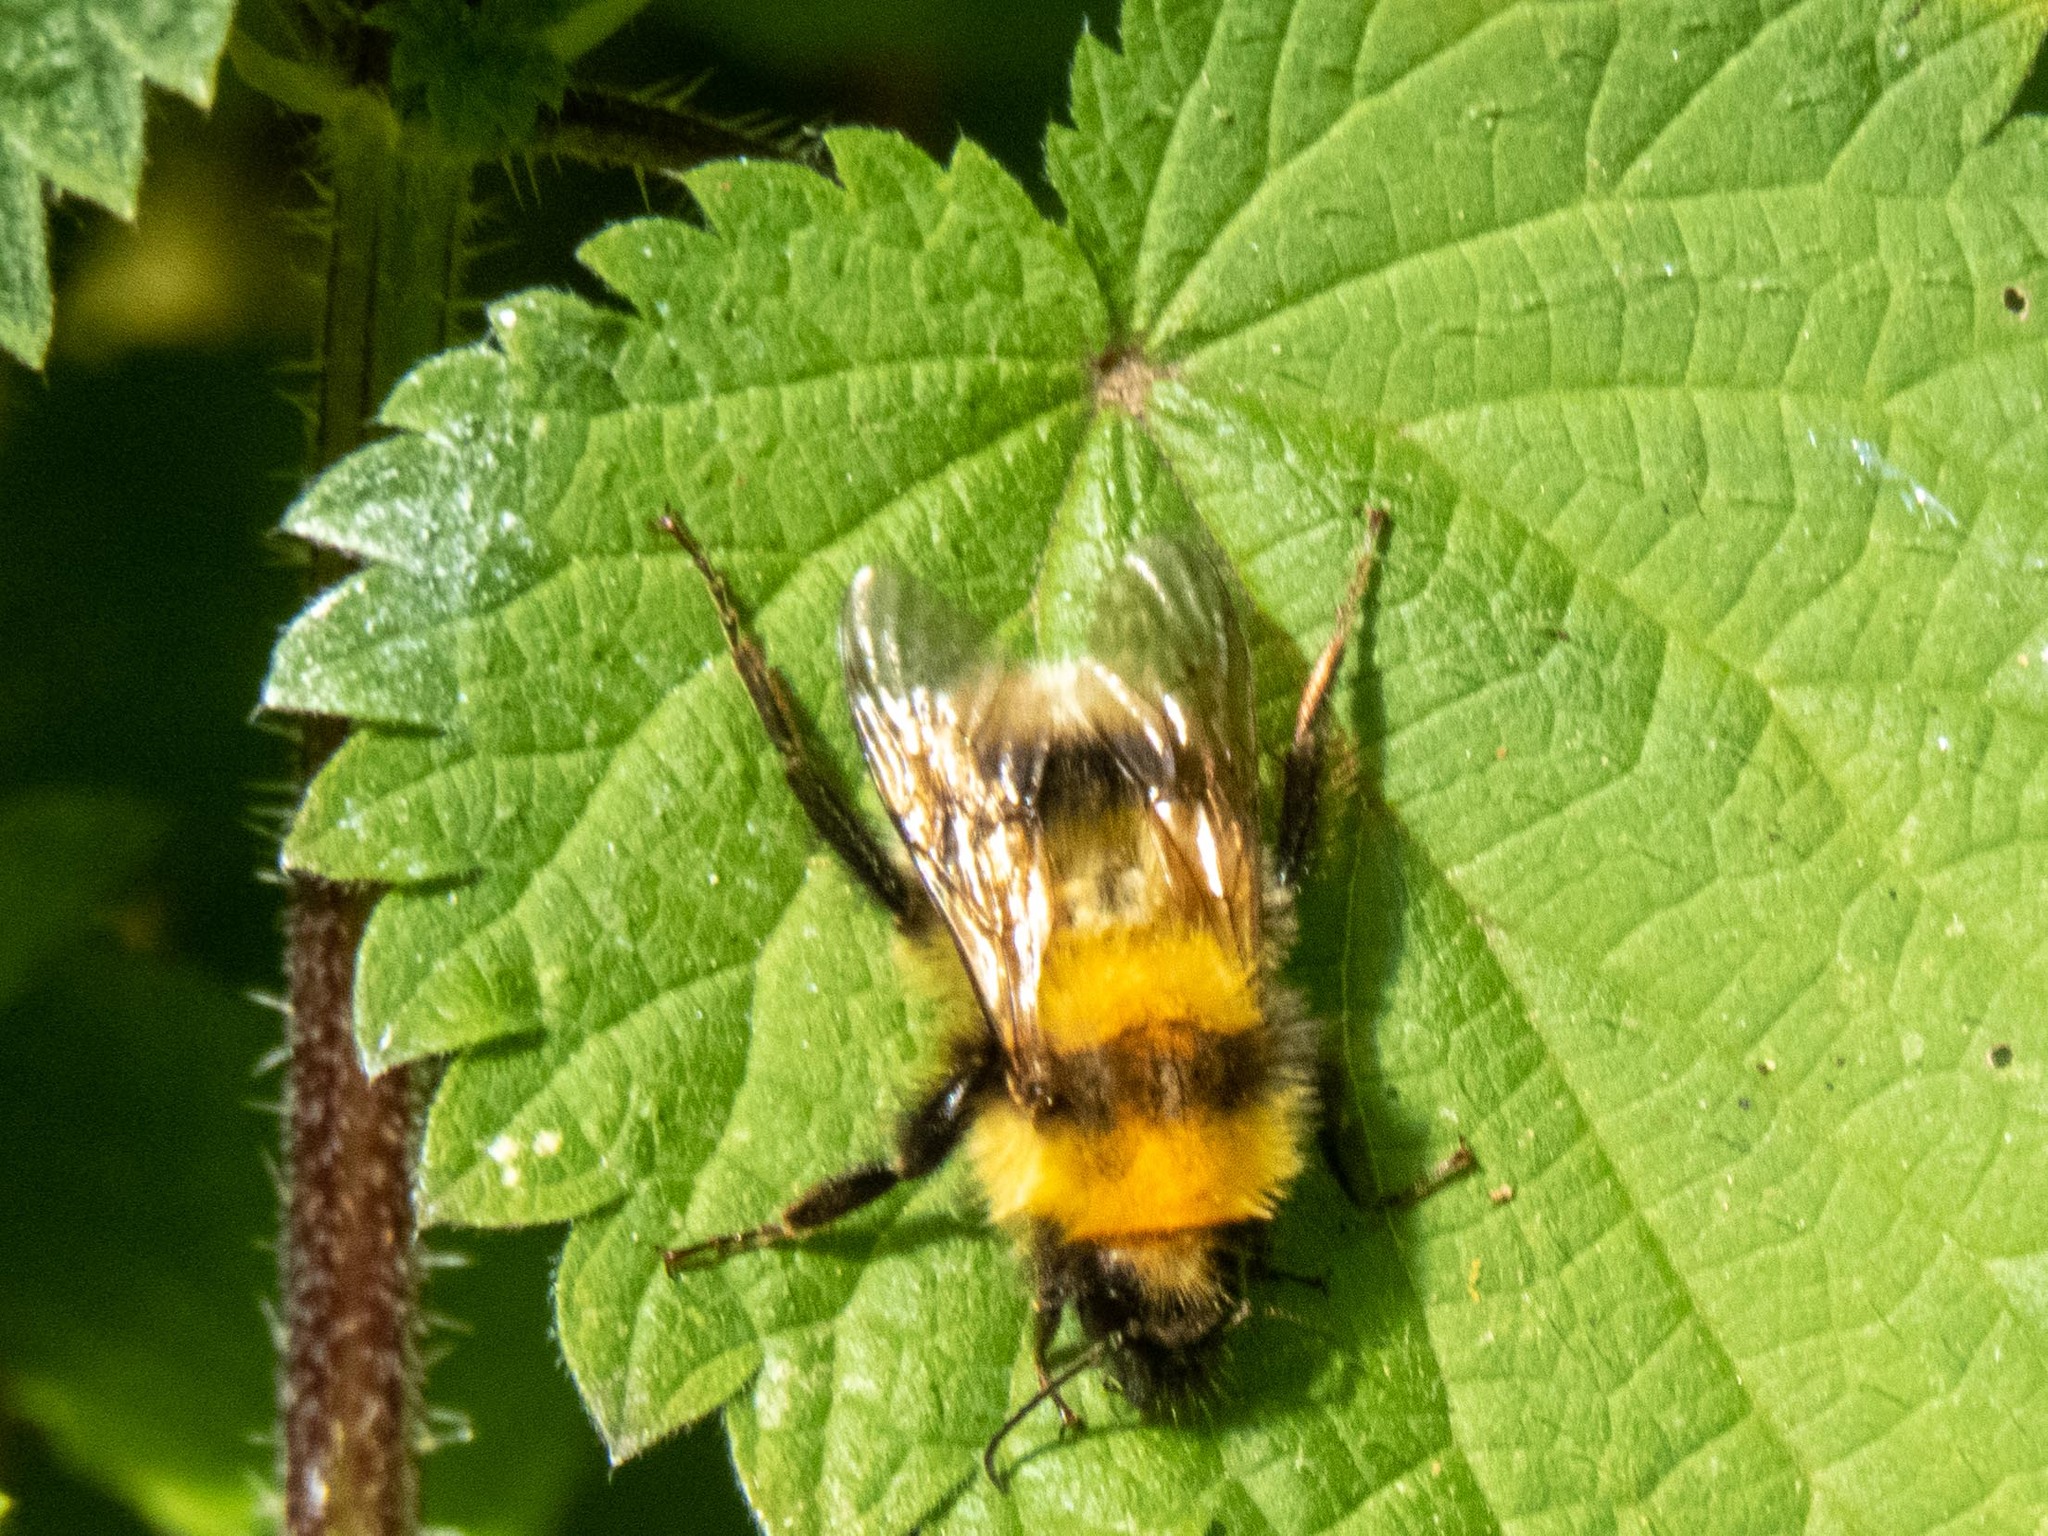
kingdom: Animalia
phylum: Arthropoda
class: Insecta
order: Hymenoptera
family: Apidae
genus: Bombus
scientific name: Bombus ruderatus
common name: Large garden bumblebee
